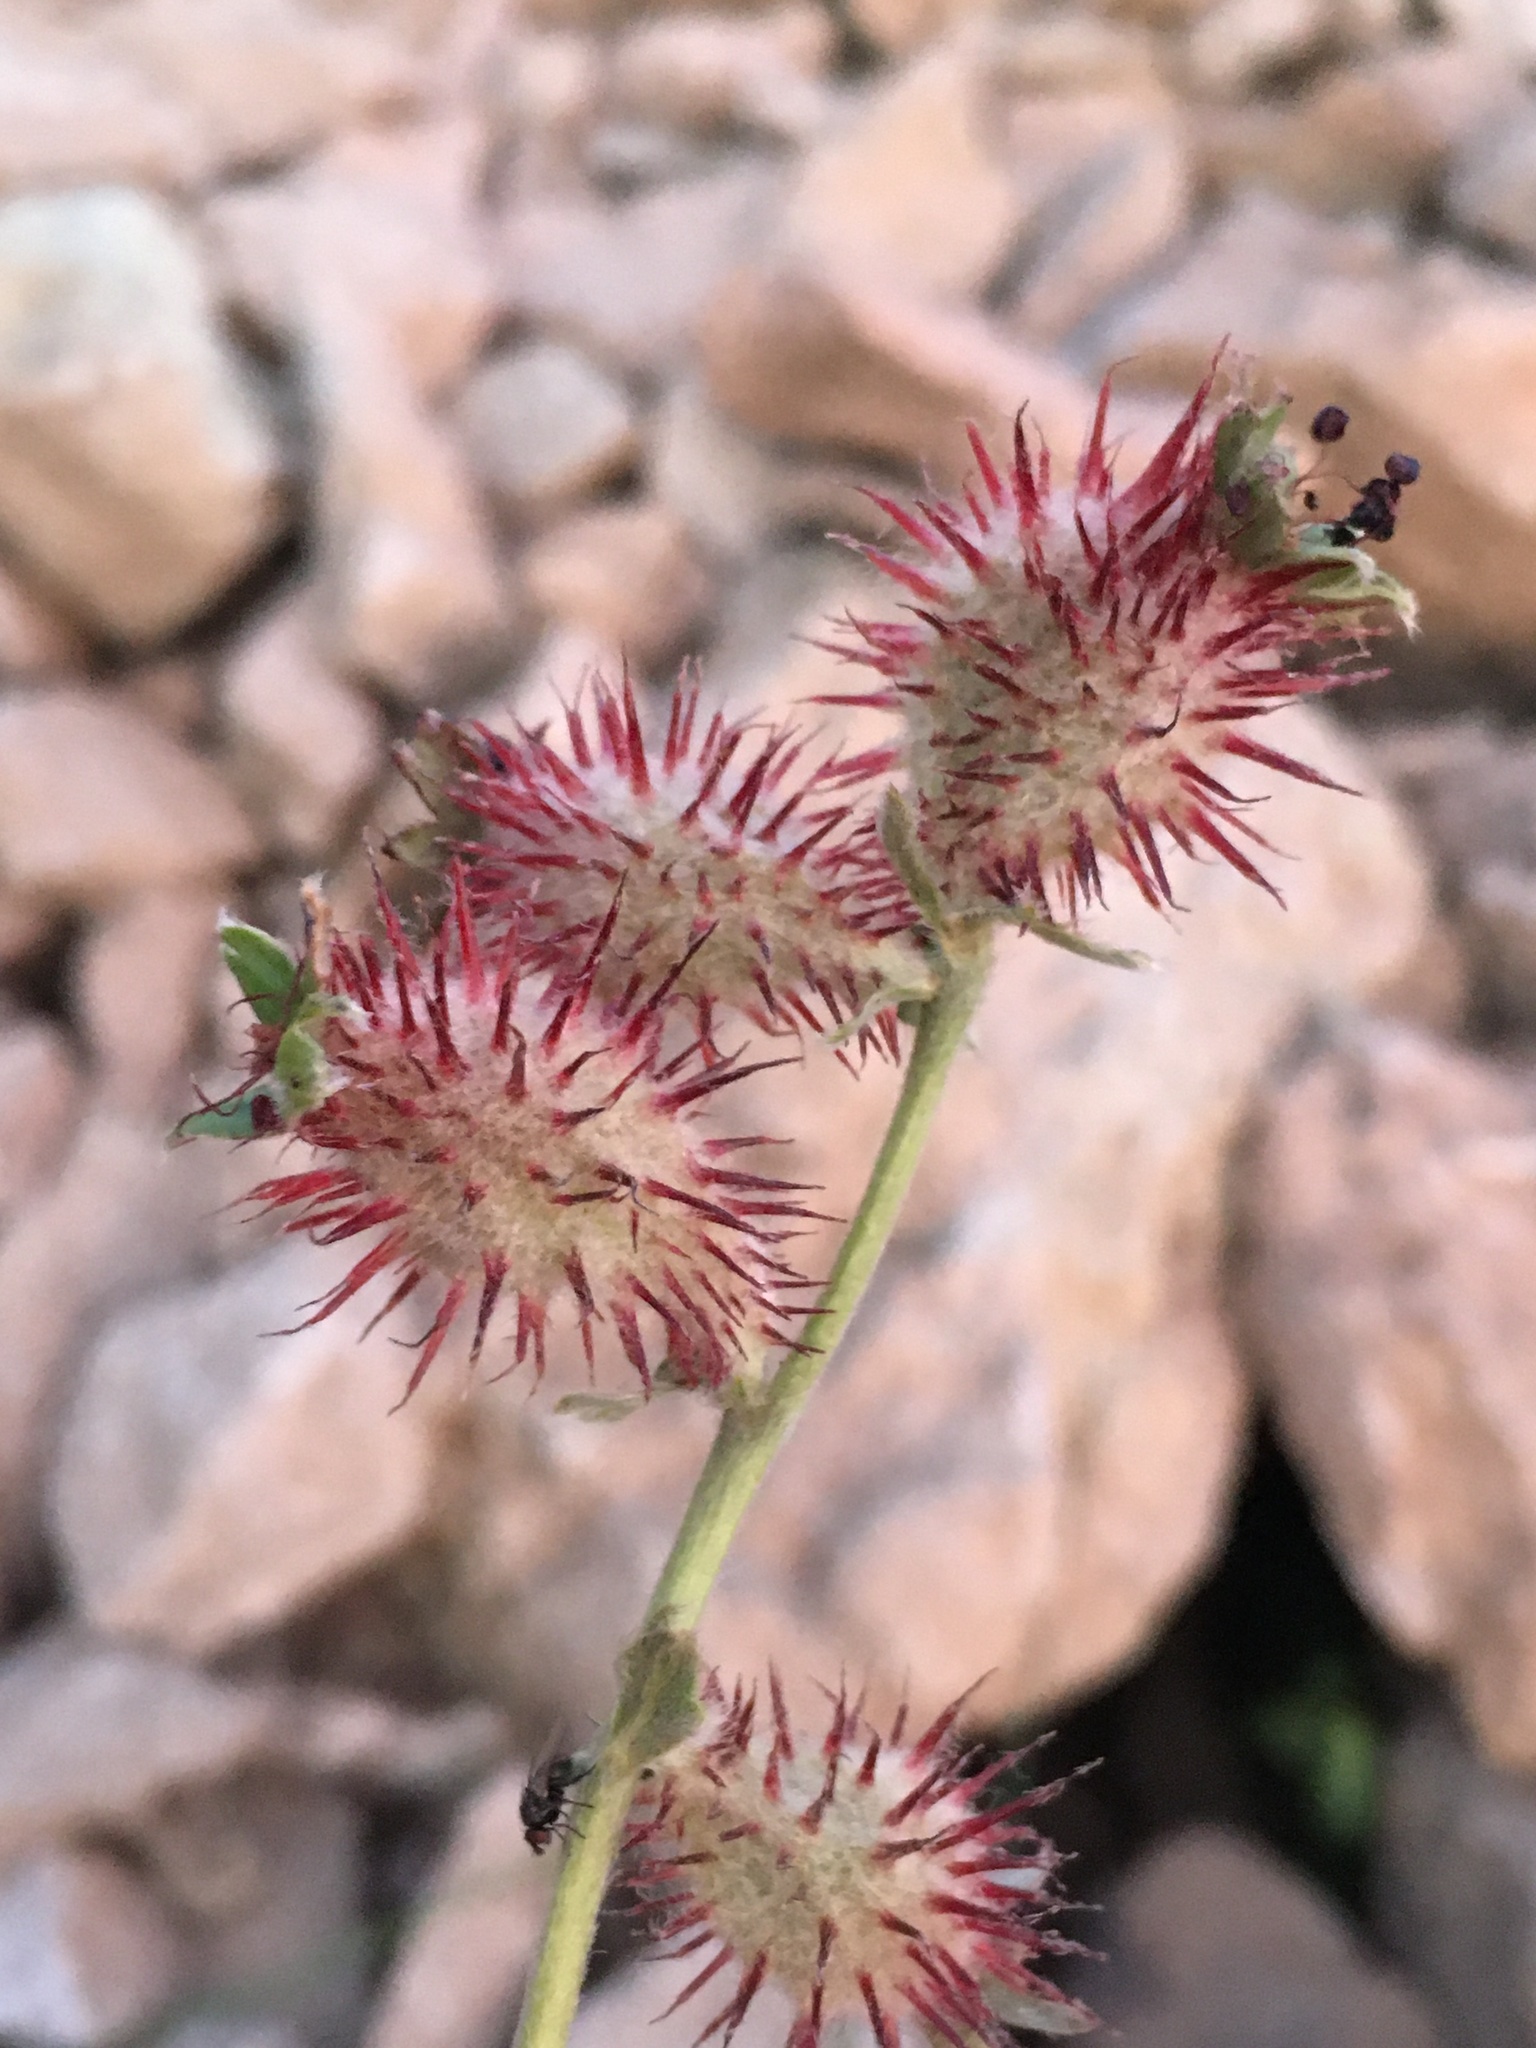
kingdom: Plantae
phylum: Tracheophyta
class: Magnoliopsida
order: Rosales
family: Rosaceae
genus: Acaena
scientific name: Acaena alpina
